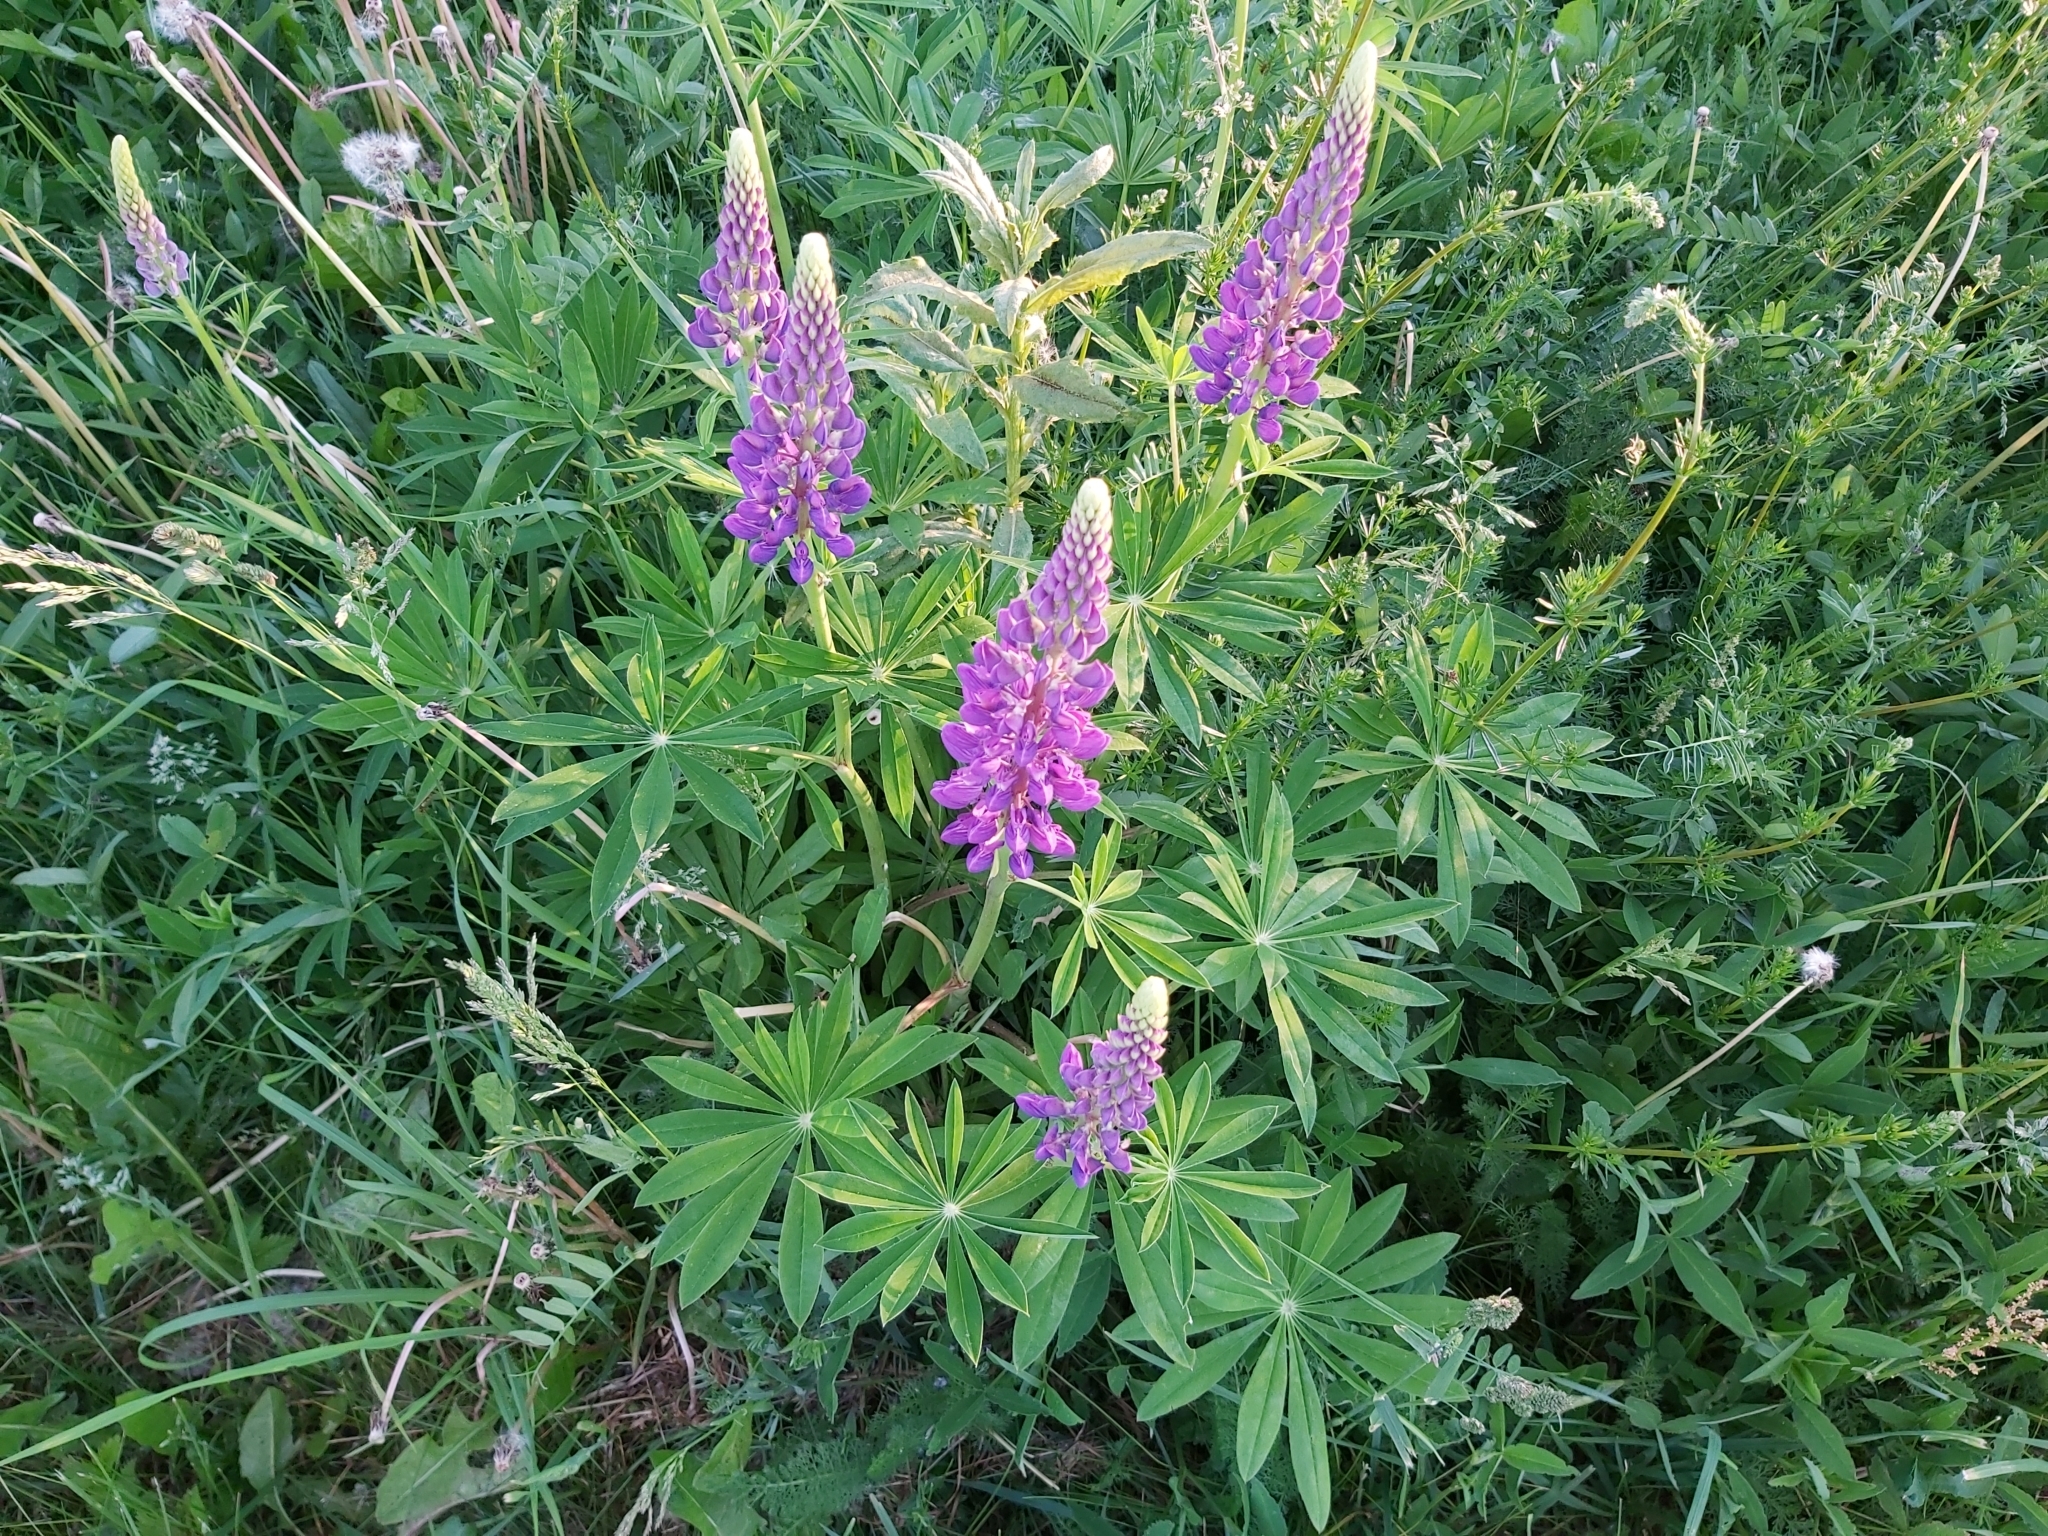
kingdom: Plantae
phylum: Tracheophyta
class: Magnoliopsida
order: Fabales
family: Fabaceae
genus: Lupinus
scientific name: Lupinus polyphyllus
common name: Garden lupin
